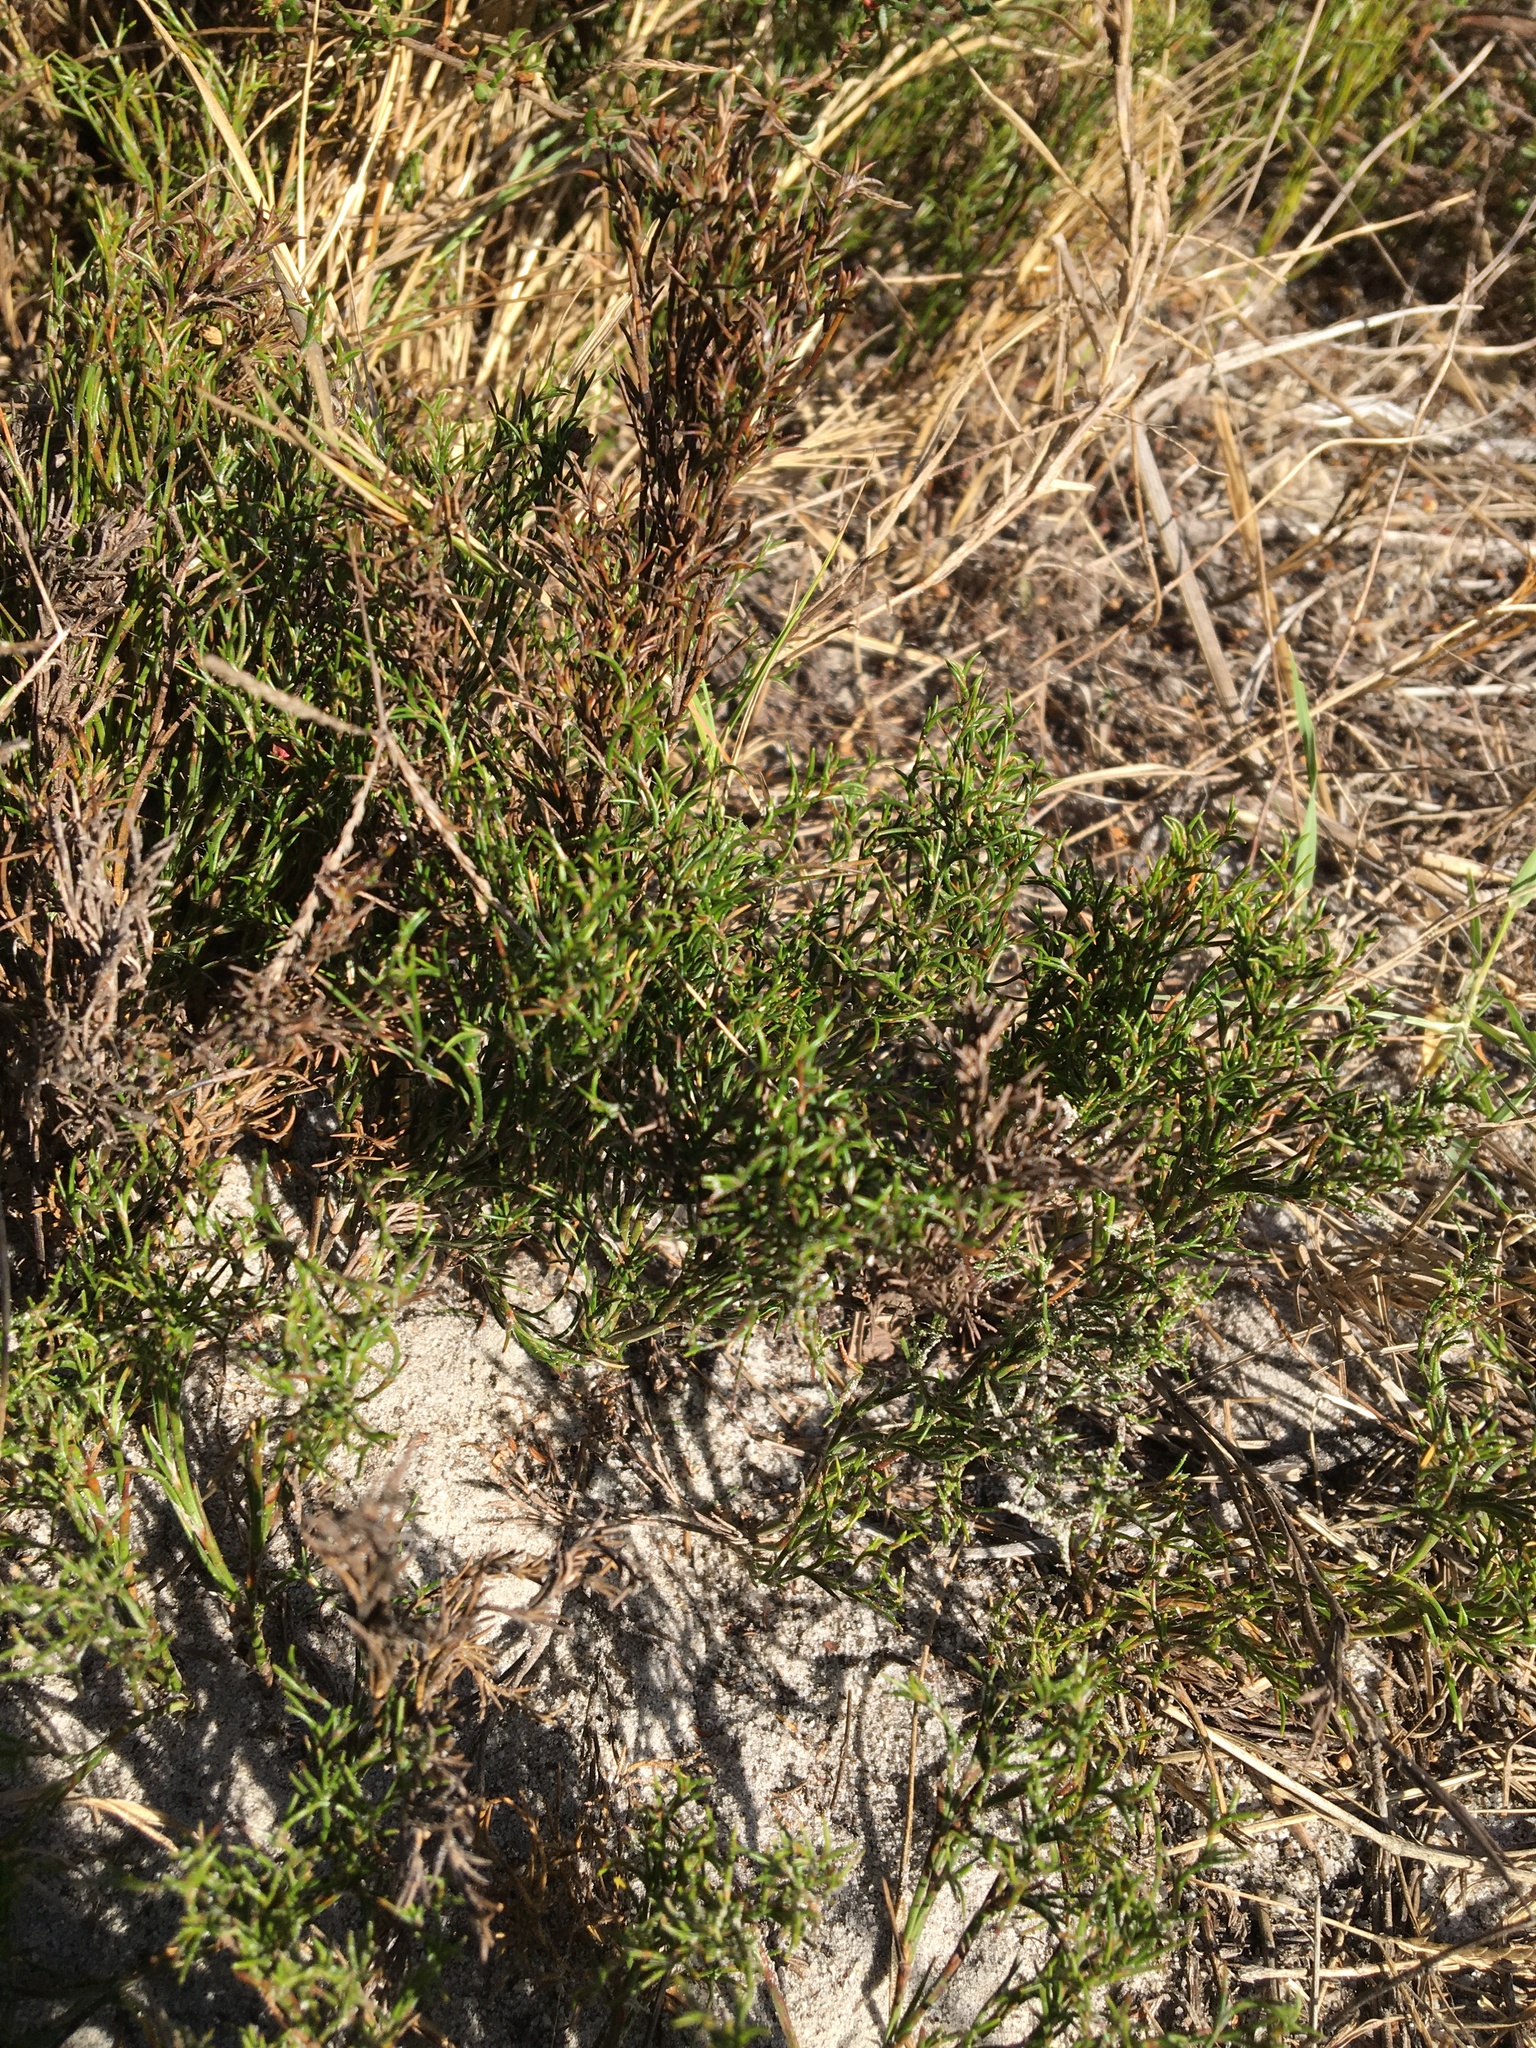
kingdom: Plantae
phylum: Tracheophyta
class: Liliopsida
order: Poales
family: Restionaceae
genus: Thamnochortus
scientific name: Thamnochortus obtusus
